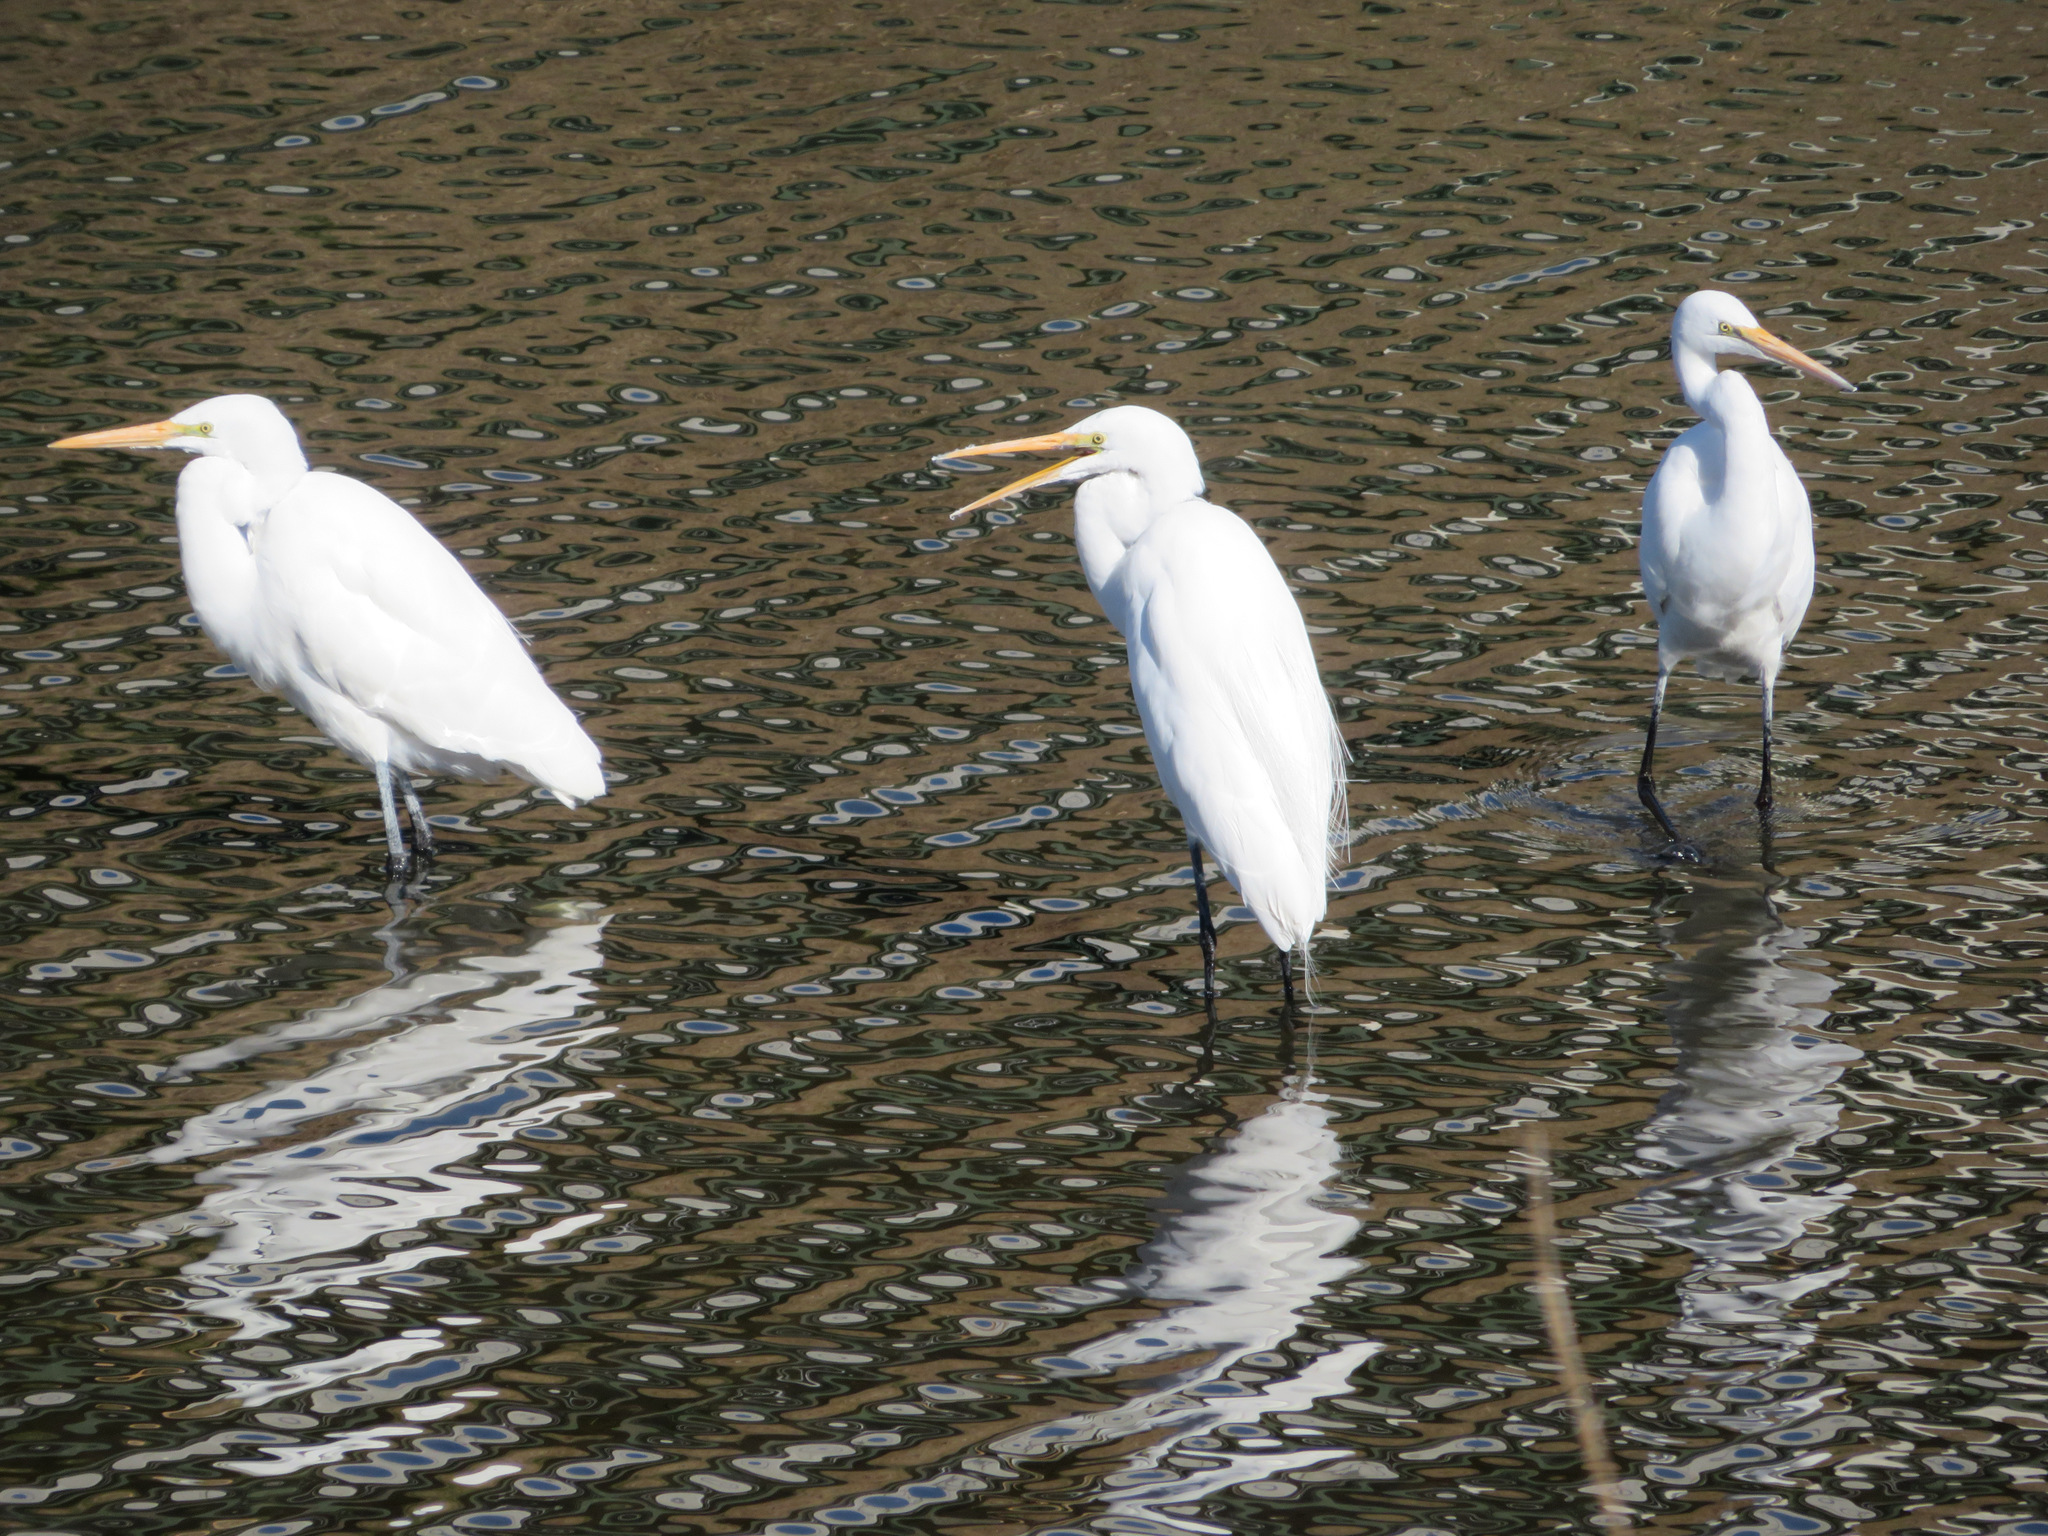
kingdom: Animalia
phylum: Chordata
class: Aves
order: Pelecaniformes
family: Ardeidae
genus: Ardea
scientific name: Ardea alba
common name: Great egret
